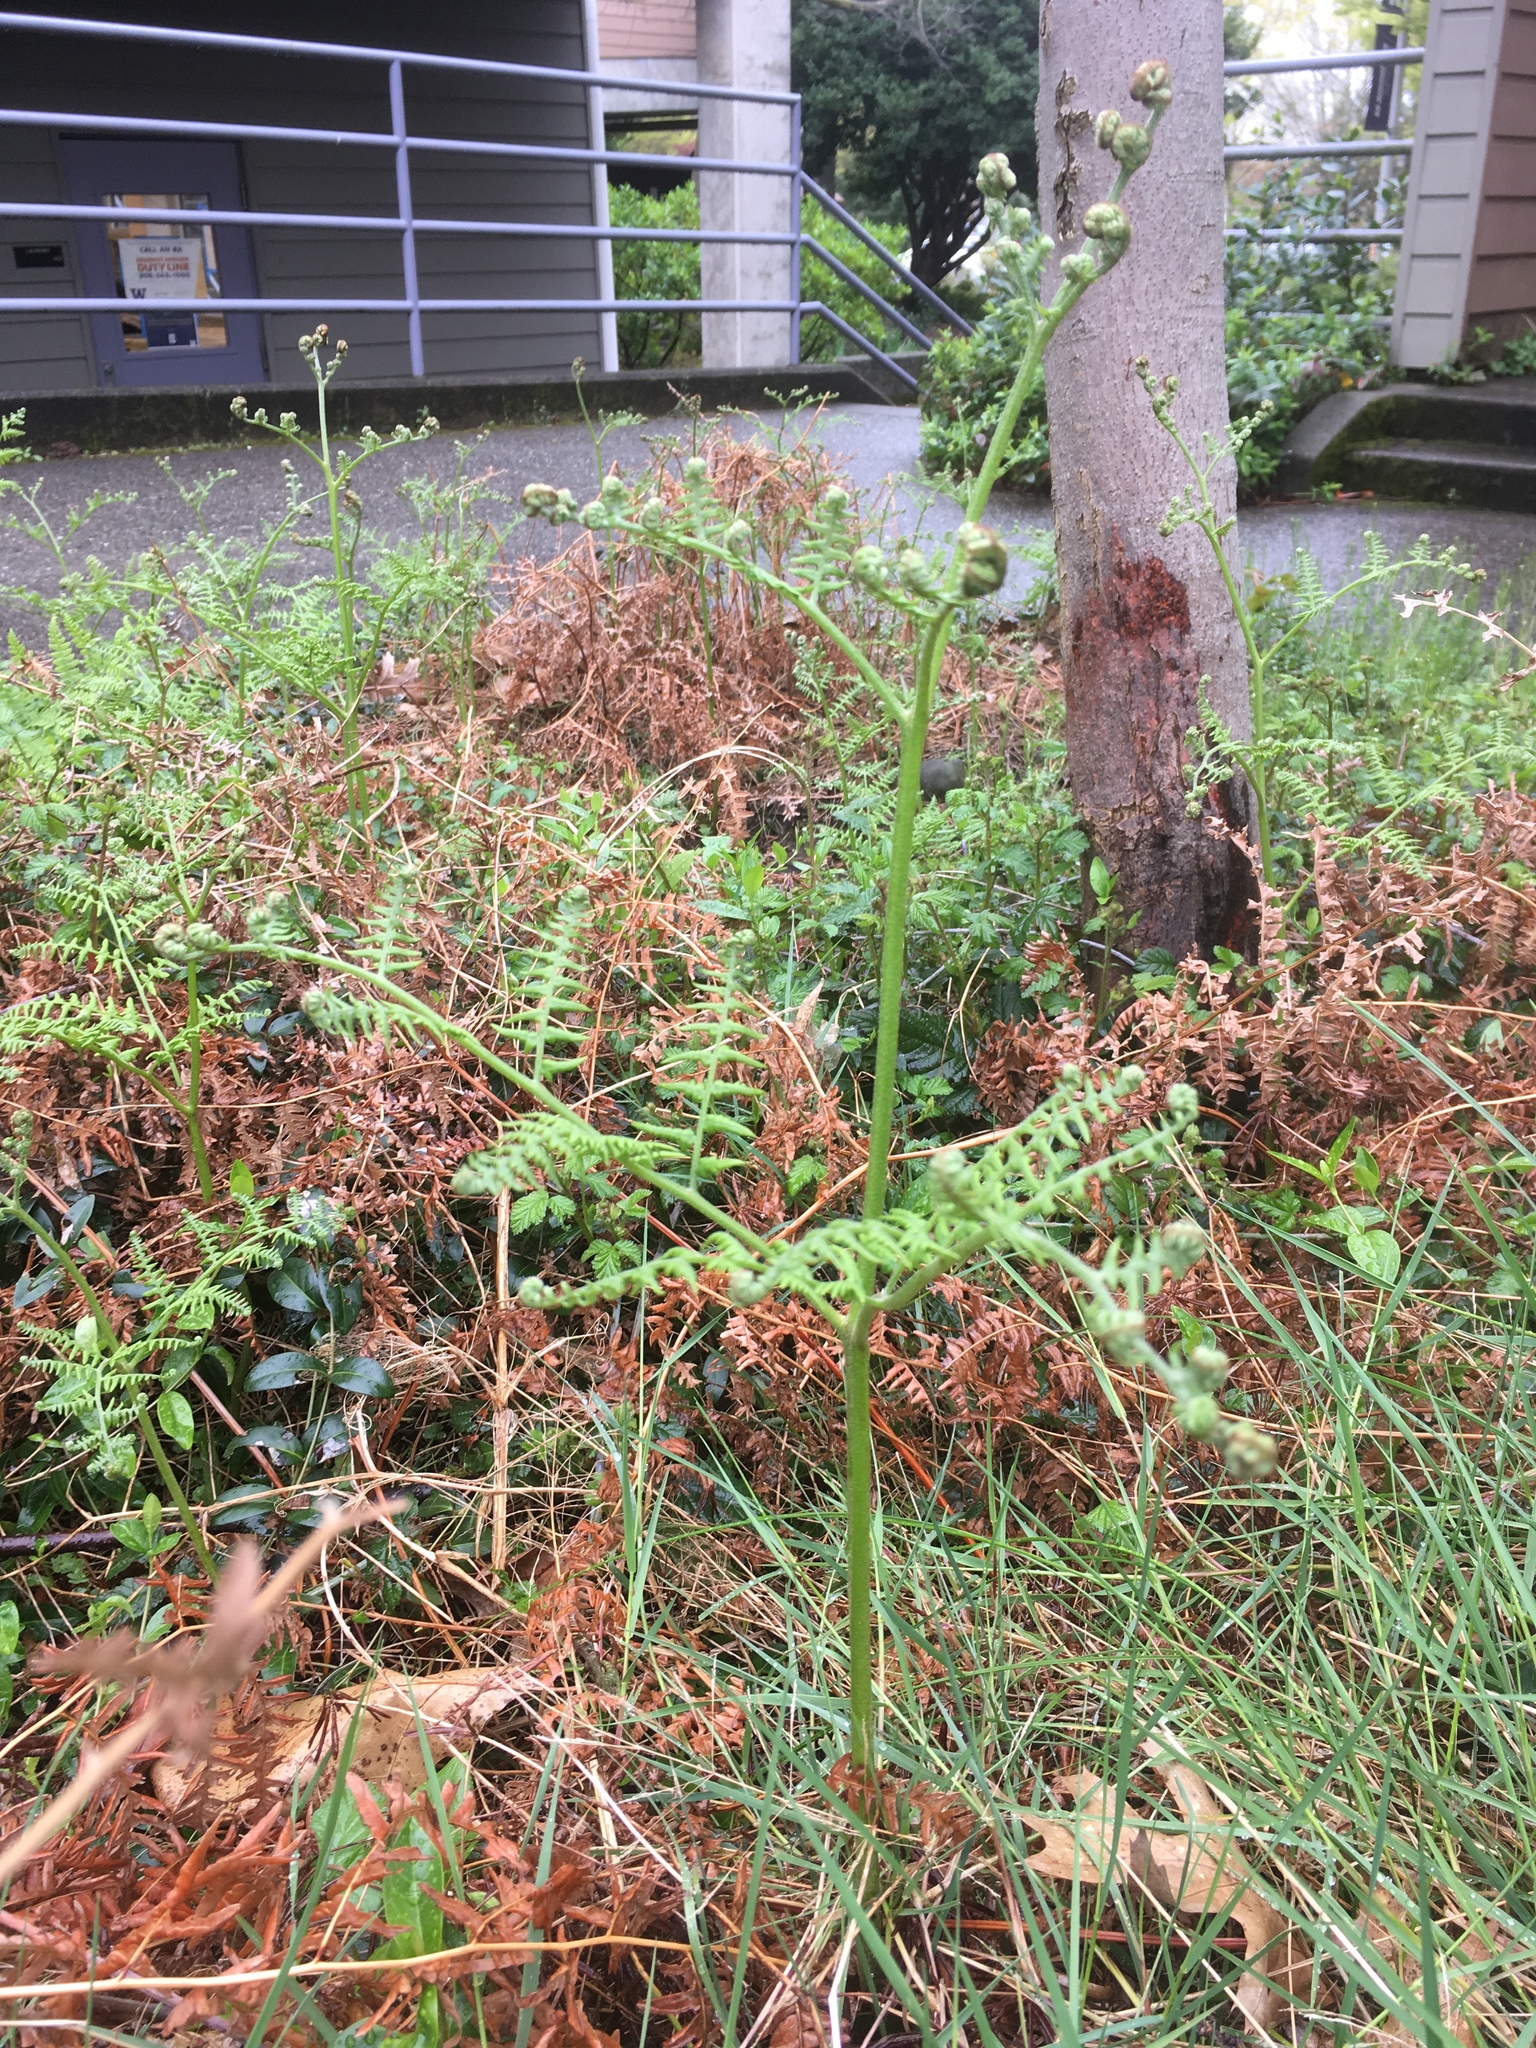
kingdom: Plantae
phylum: Tracheophyta
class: Polypodiopsida
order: Polypodiales
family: Dennstaedtiaceae
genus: Pteridium
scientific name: Pteridium aquilinum
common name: Bracken
